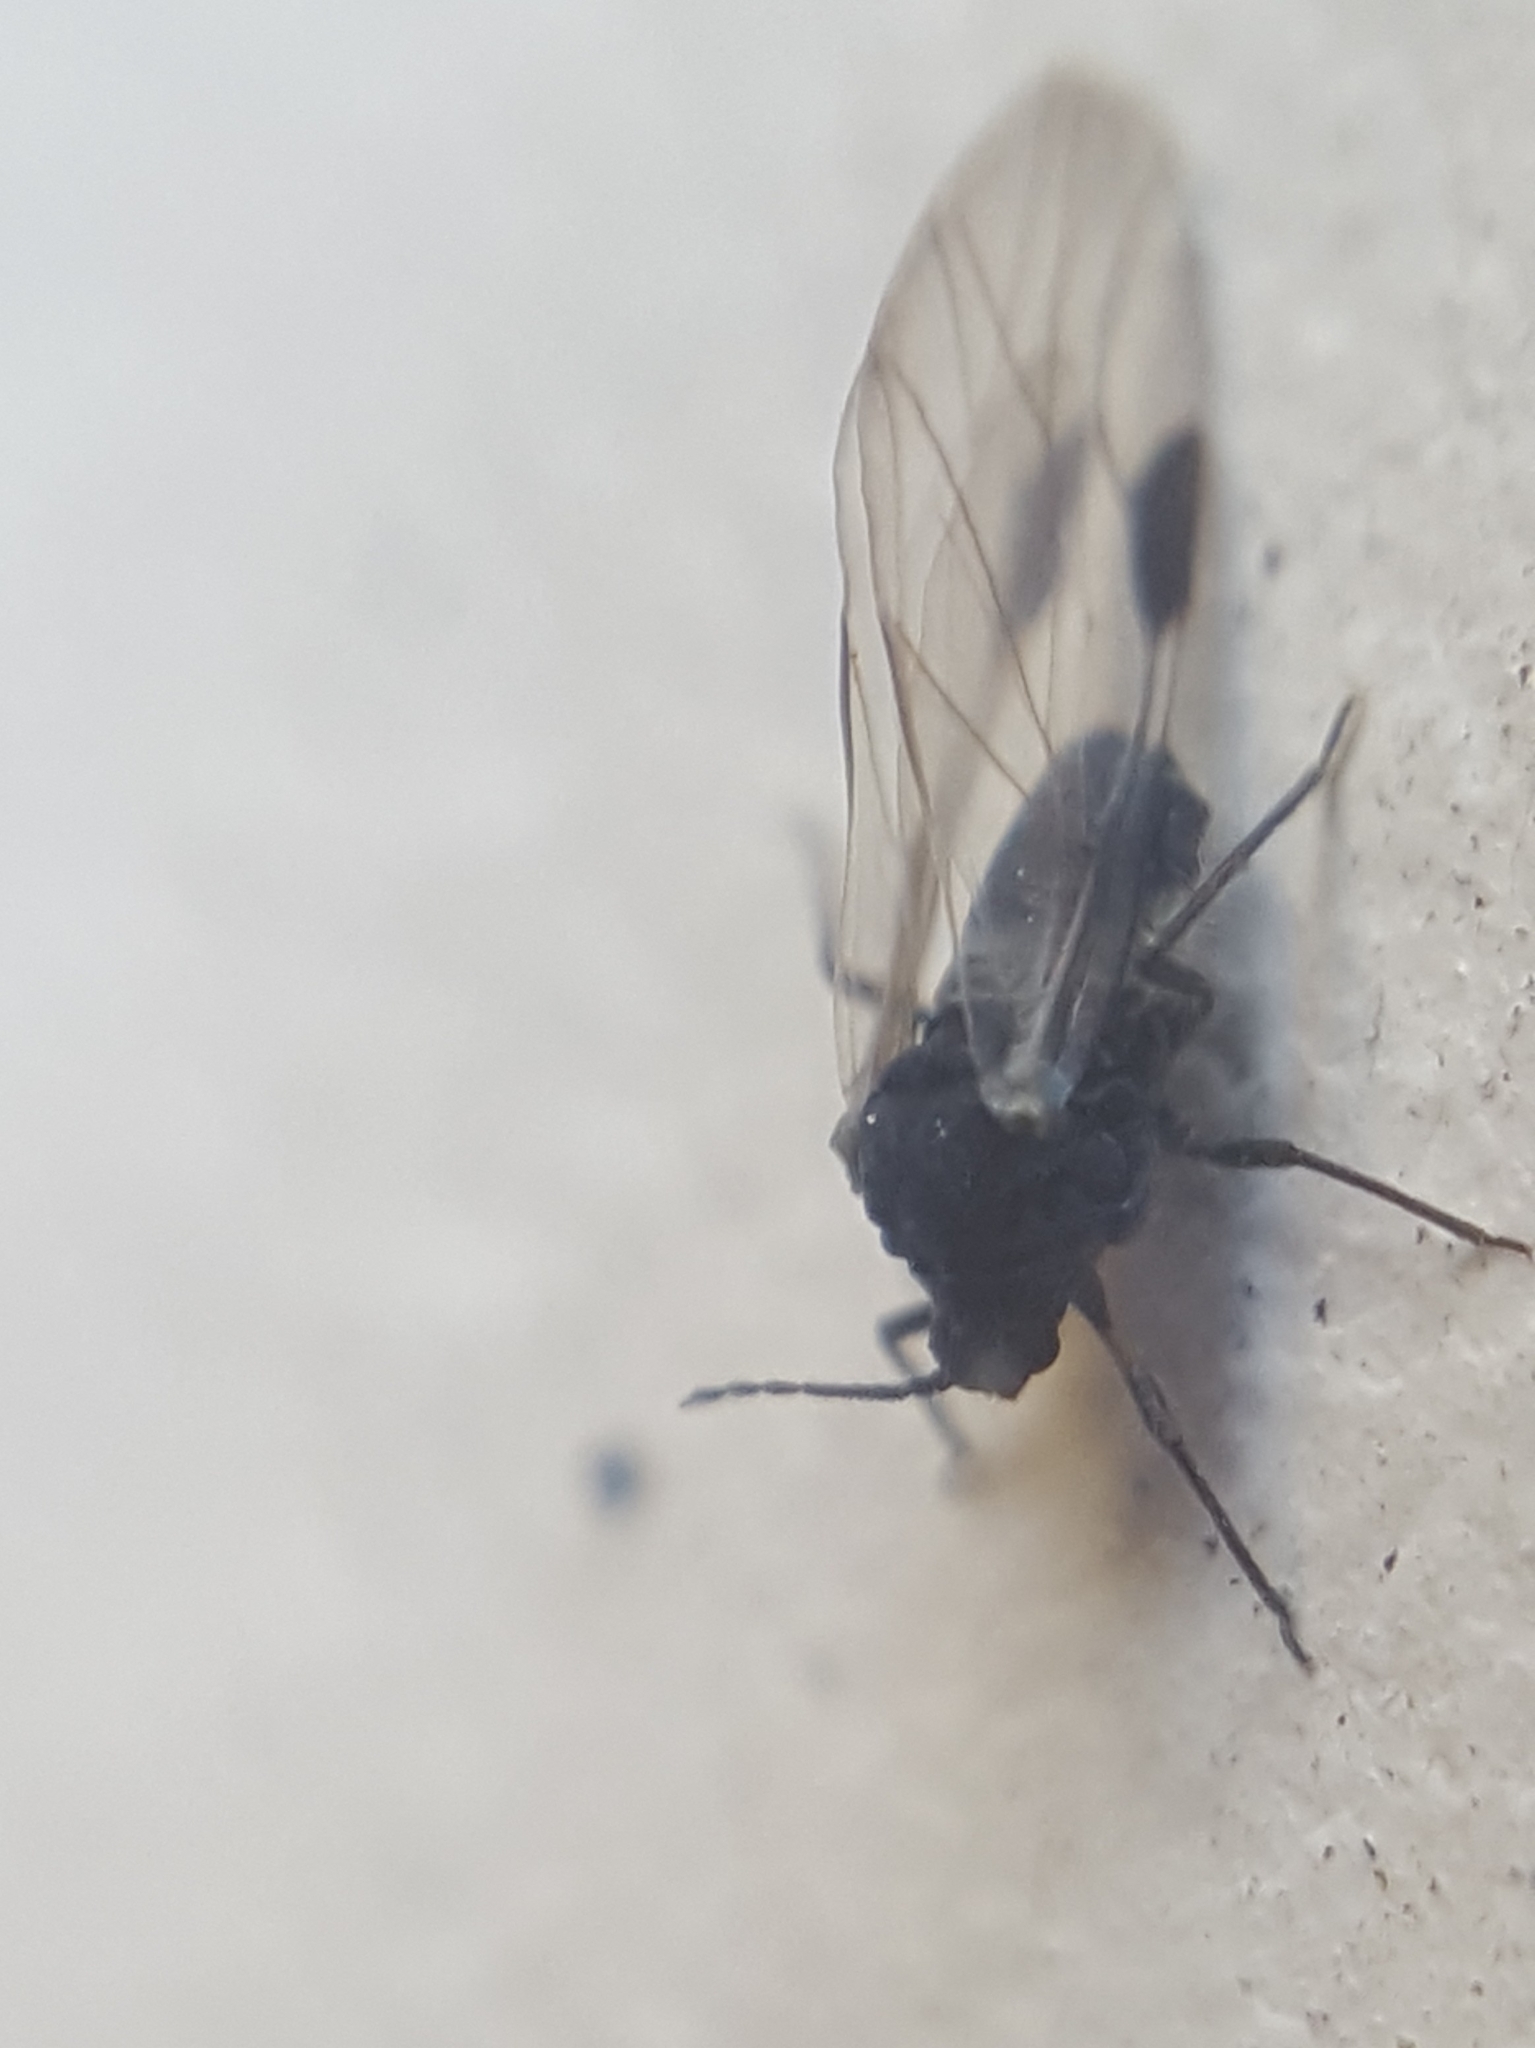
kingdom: Animalia
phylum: Arthropoda
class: Insecta
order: Hemiptera
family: Aphididae
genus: Anoecia
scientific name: Anoecia
